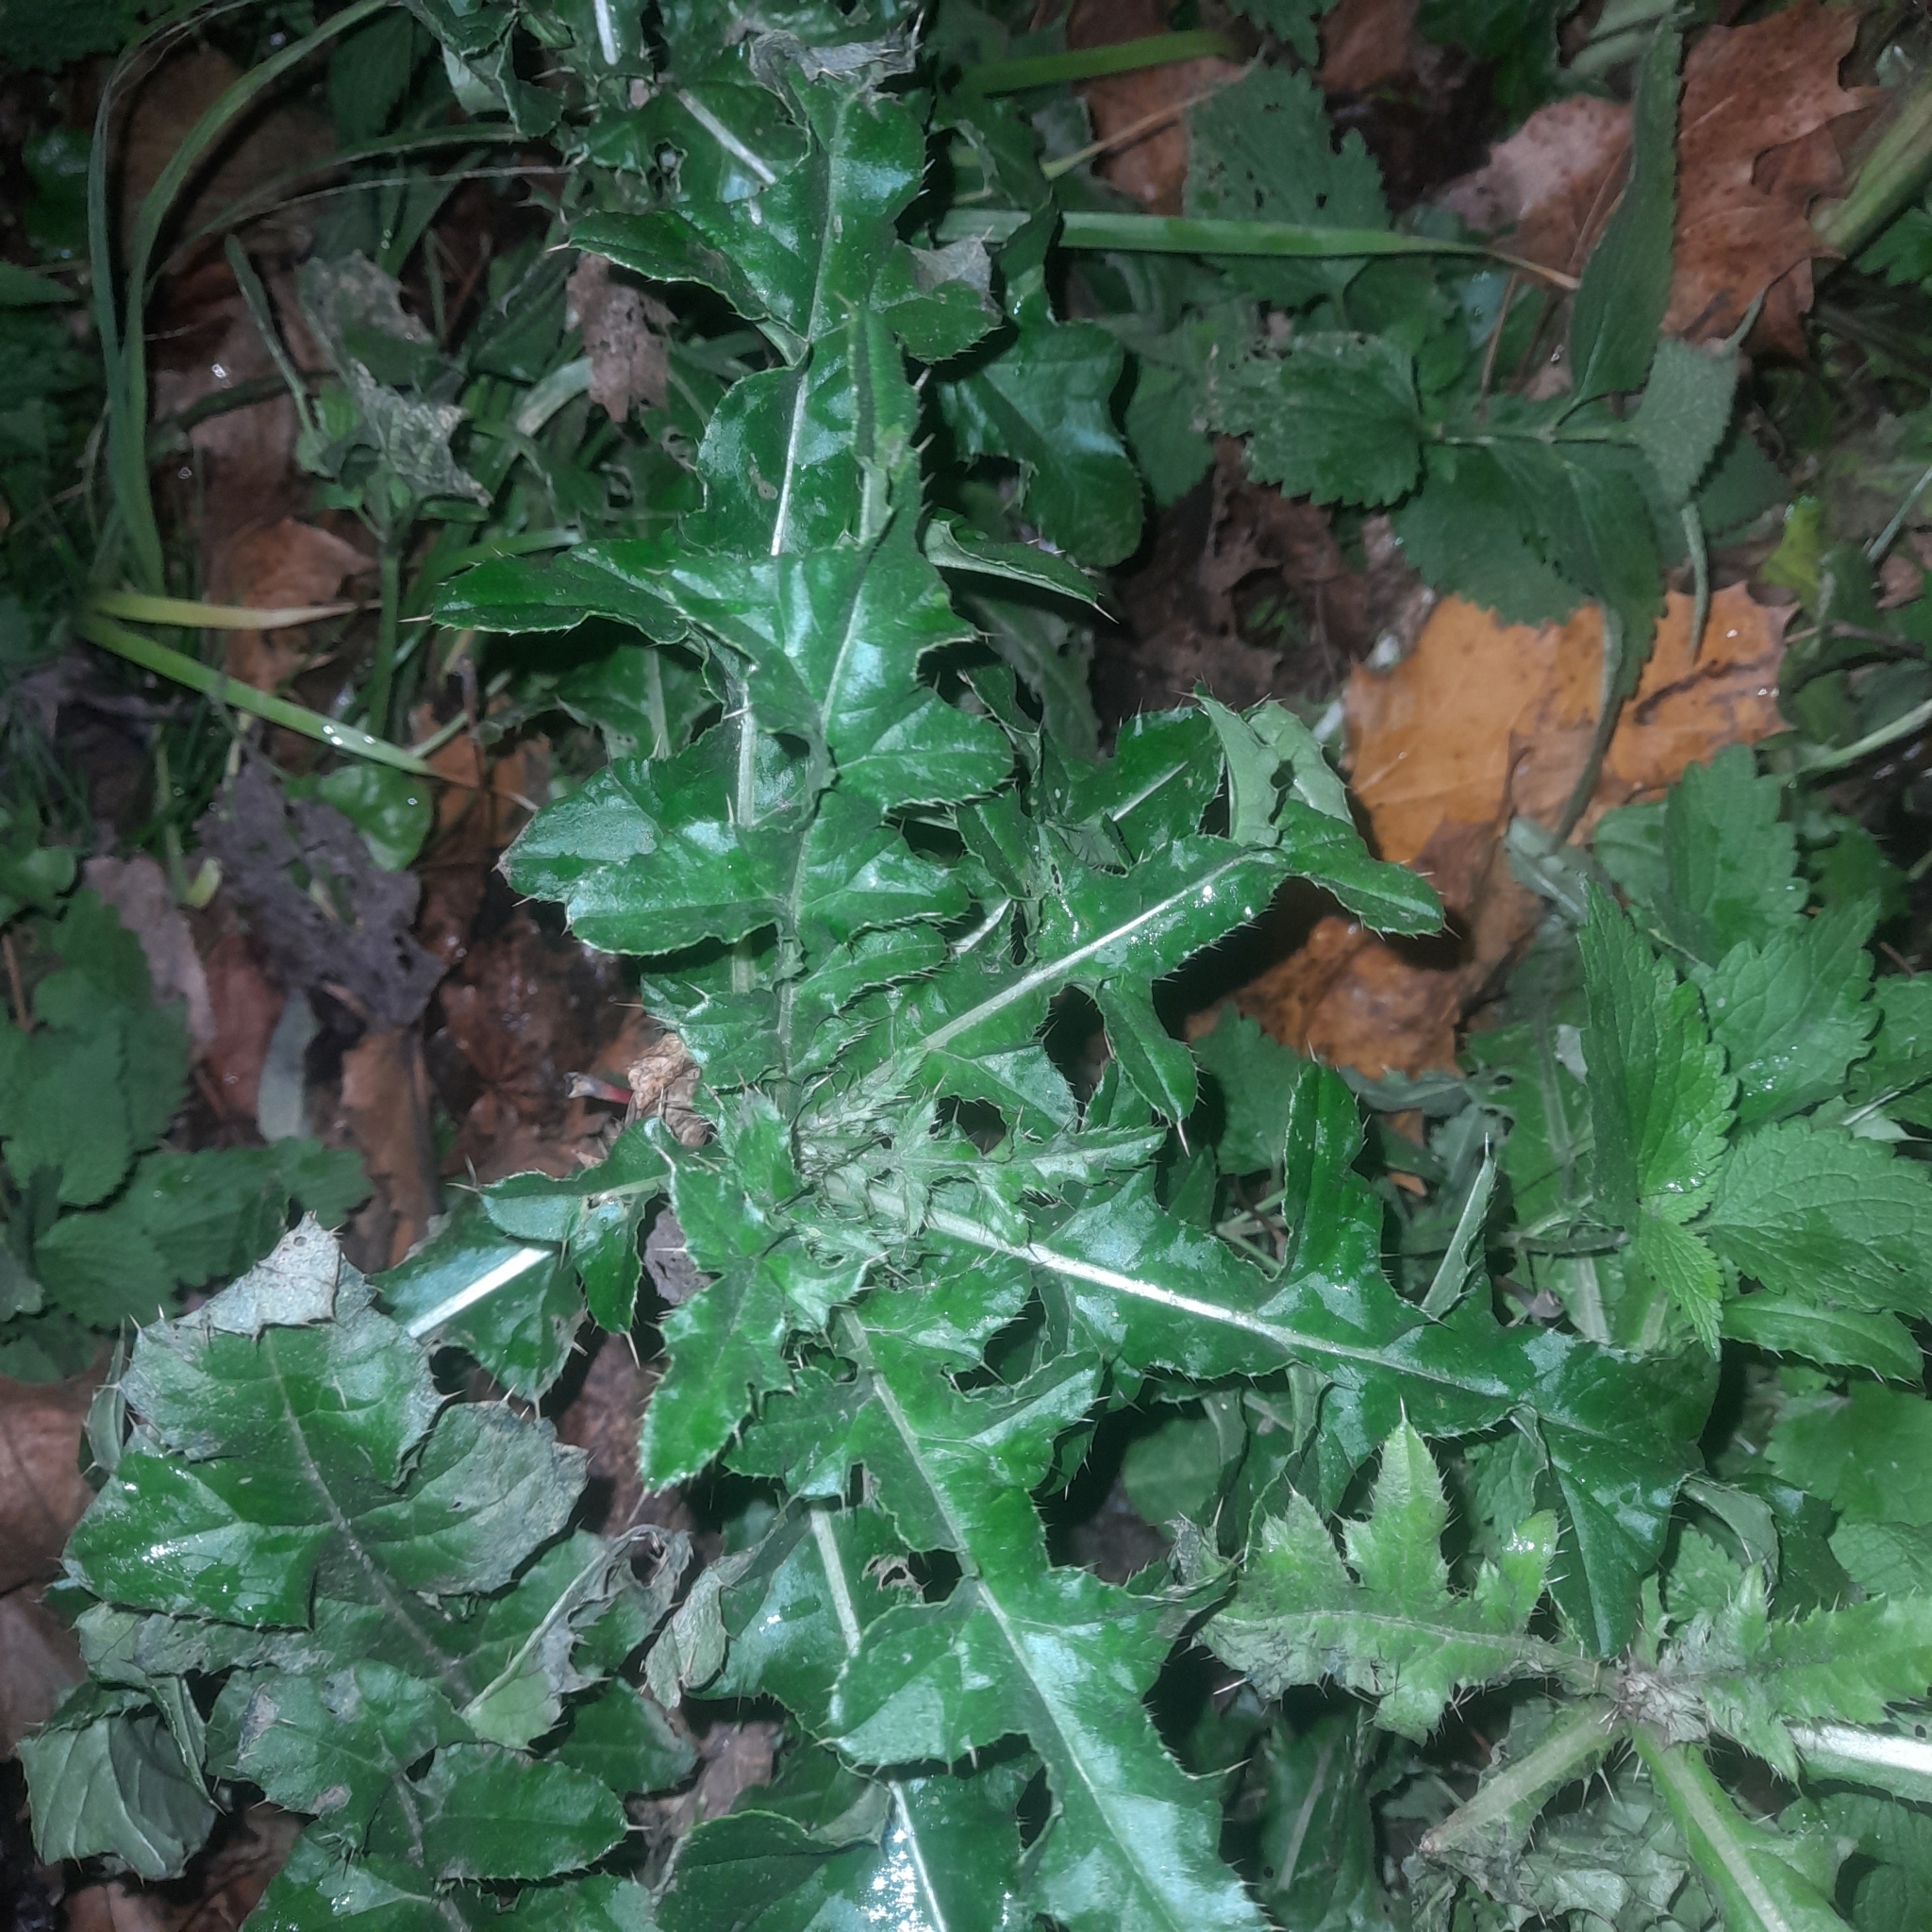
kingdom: Plantae
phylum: Tracheophyta
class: Magnoliopsida
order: Asterales
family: Asteraceae
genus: Cirsium
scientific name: Cirsium arvense
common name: Creeping thistle
